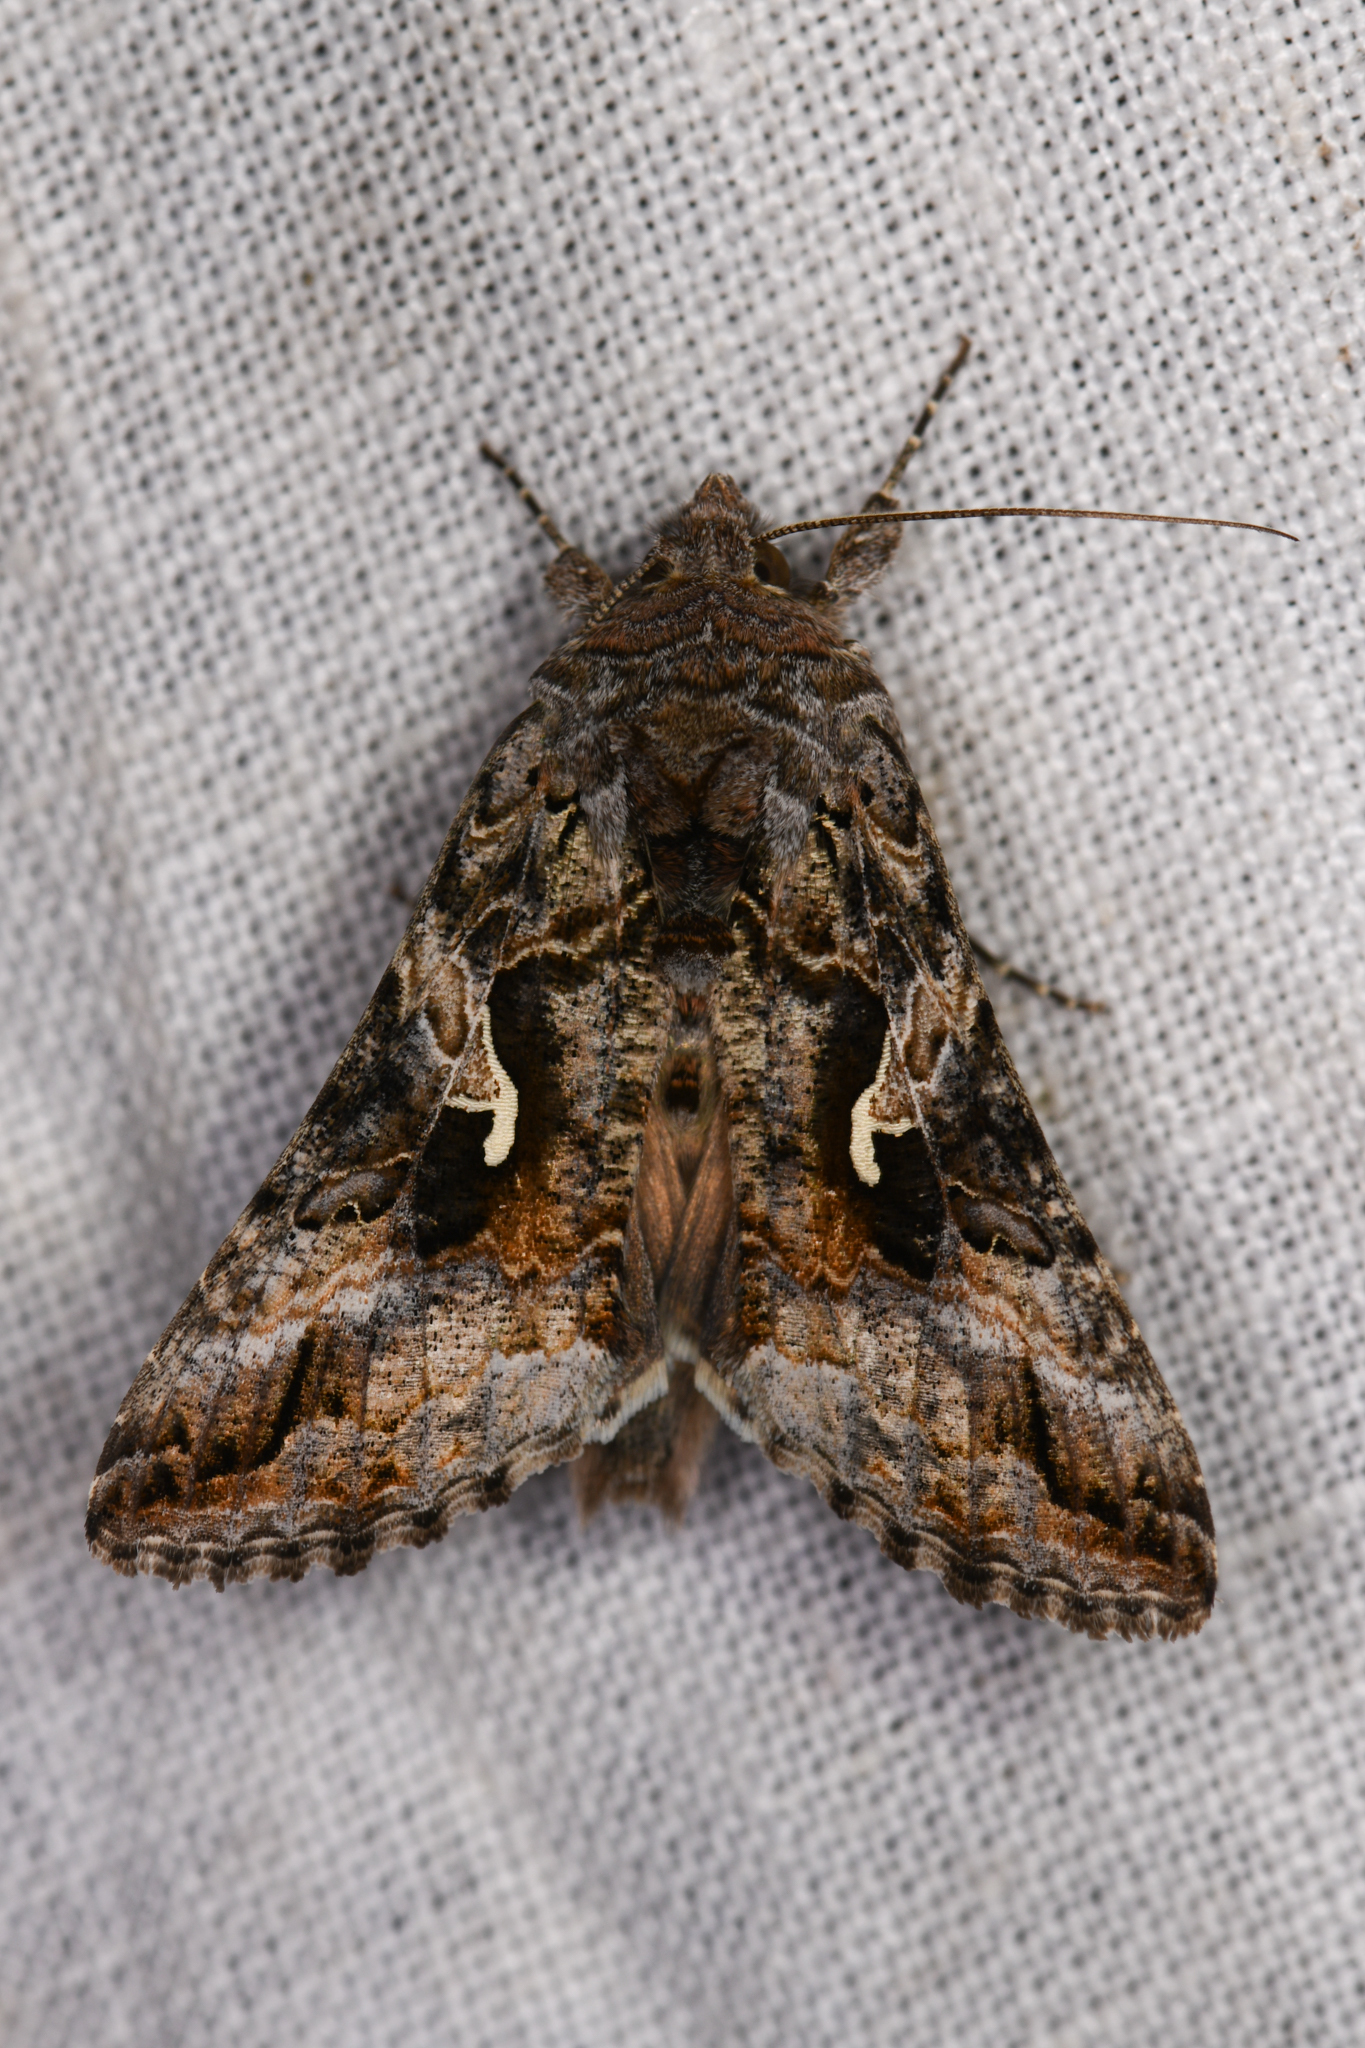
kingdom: Animalia
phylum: Arthropoda
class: Insecta
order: Lepidoptera
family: Noctuidae
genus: Autographa
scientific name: Autographa californica
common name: Alfalfa looper
